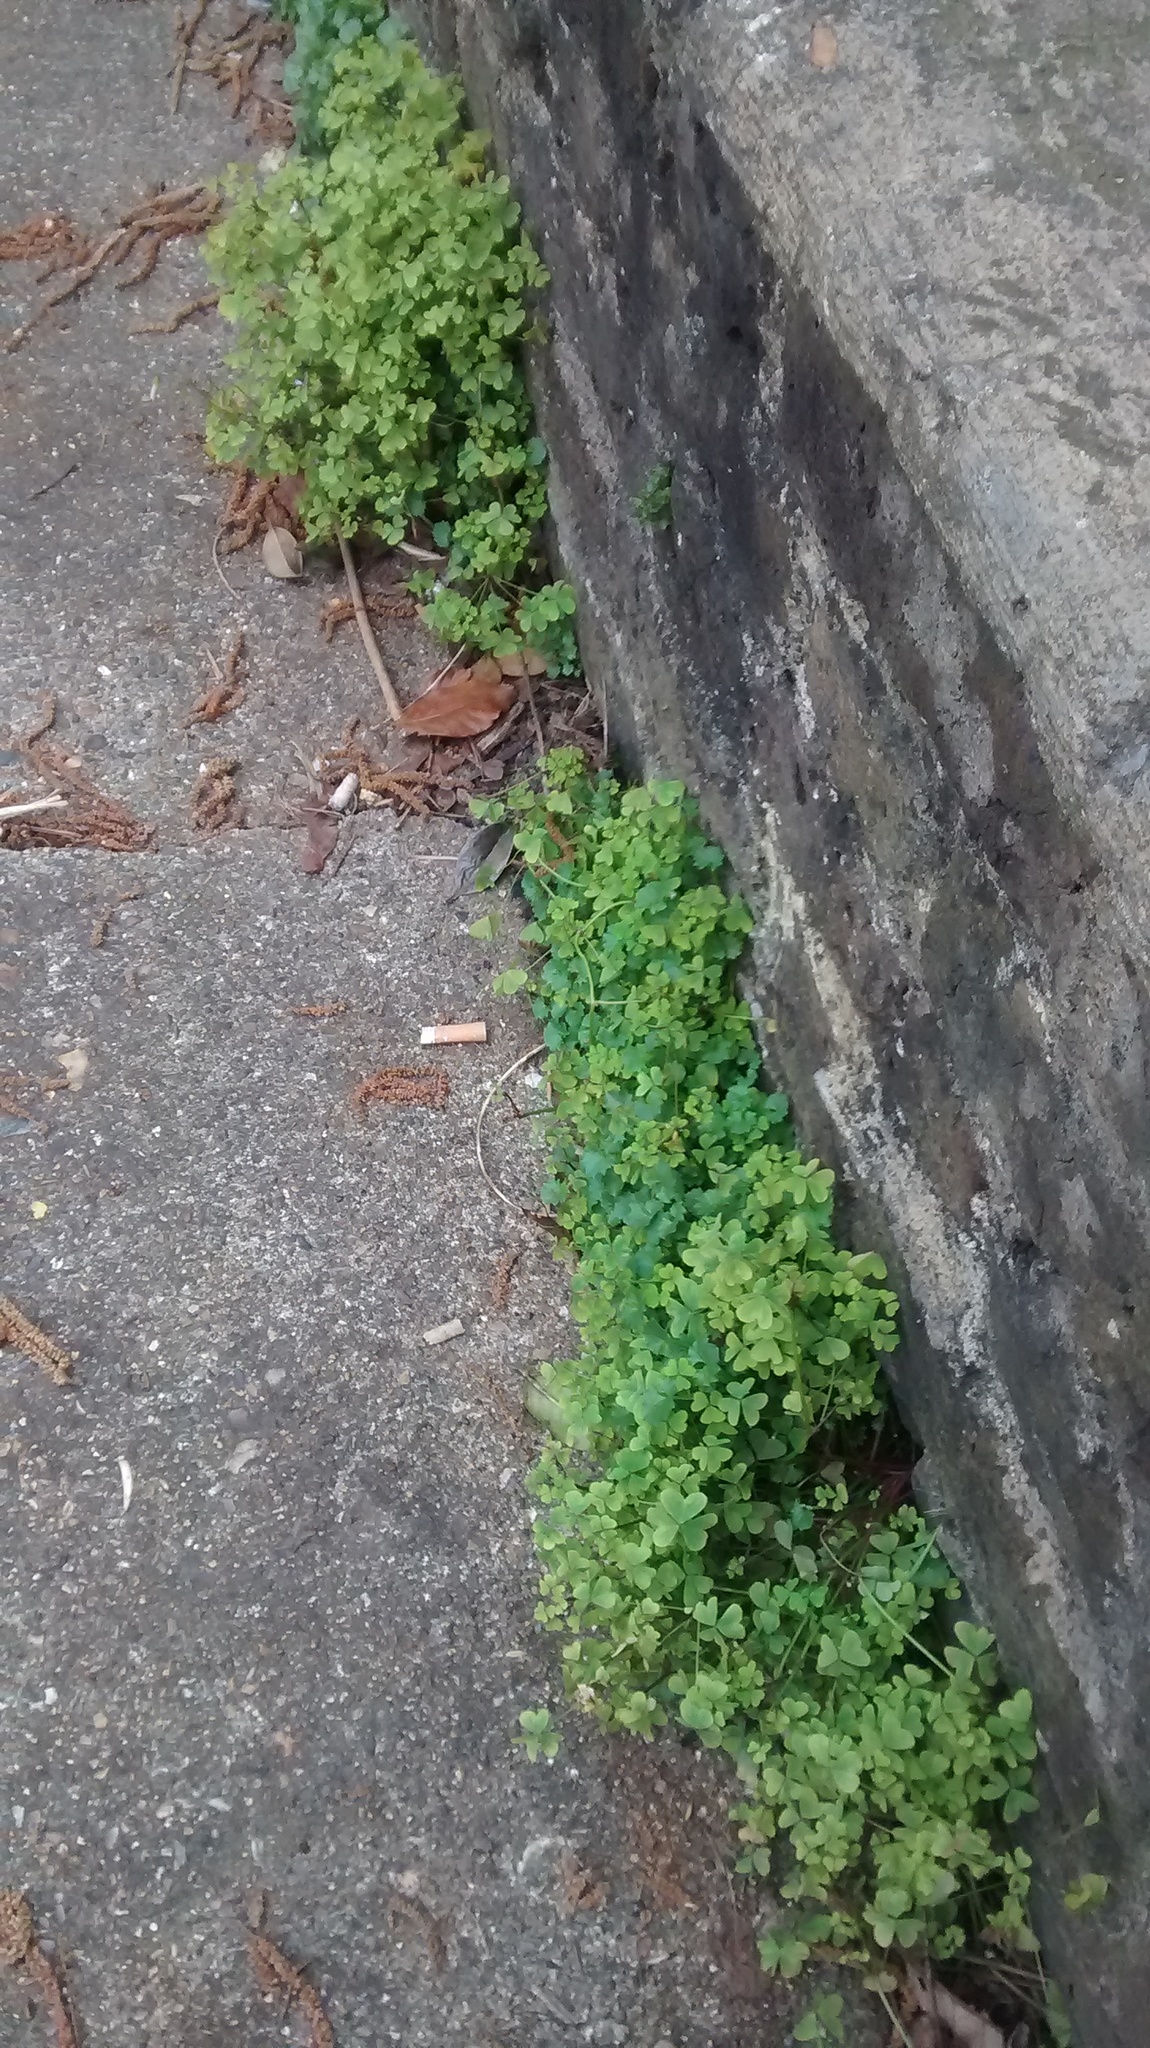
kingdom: Plantae
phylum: Tracheophyta
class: Magnoliopsida
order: Oxalidales
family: Oxalidaceae
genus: Oxalis
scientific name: Oxalis incarnata
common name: Pale pink-sorrel
